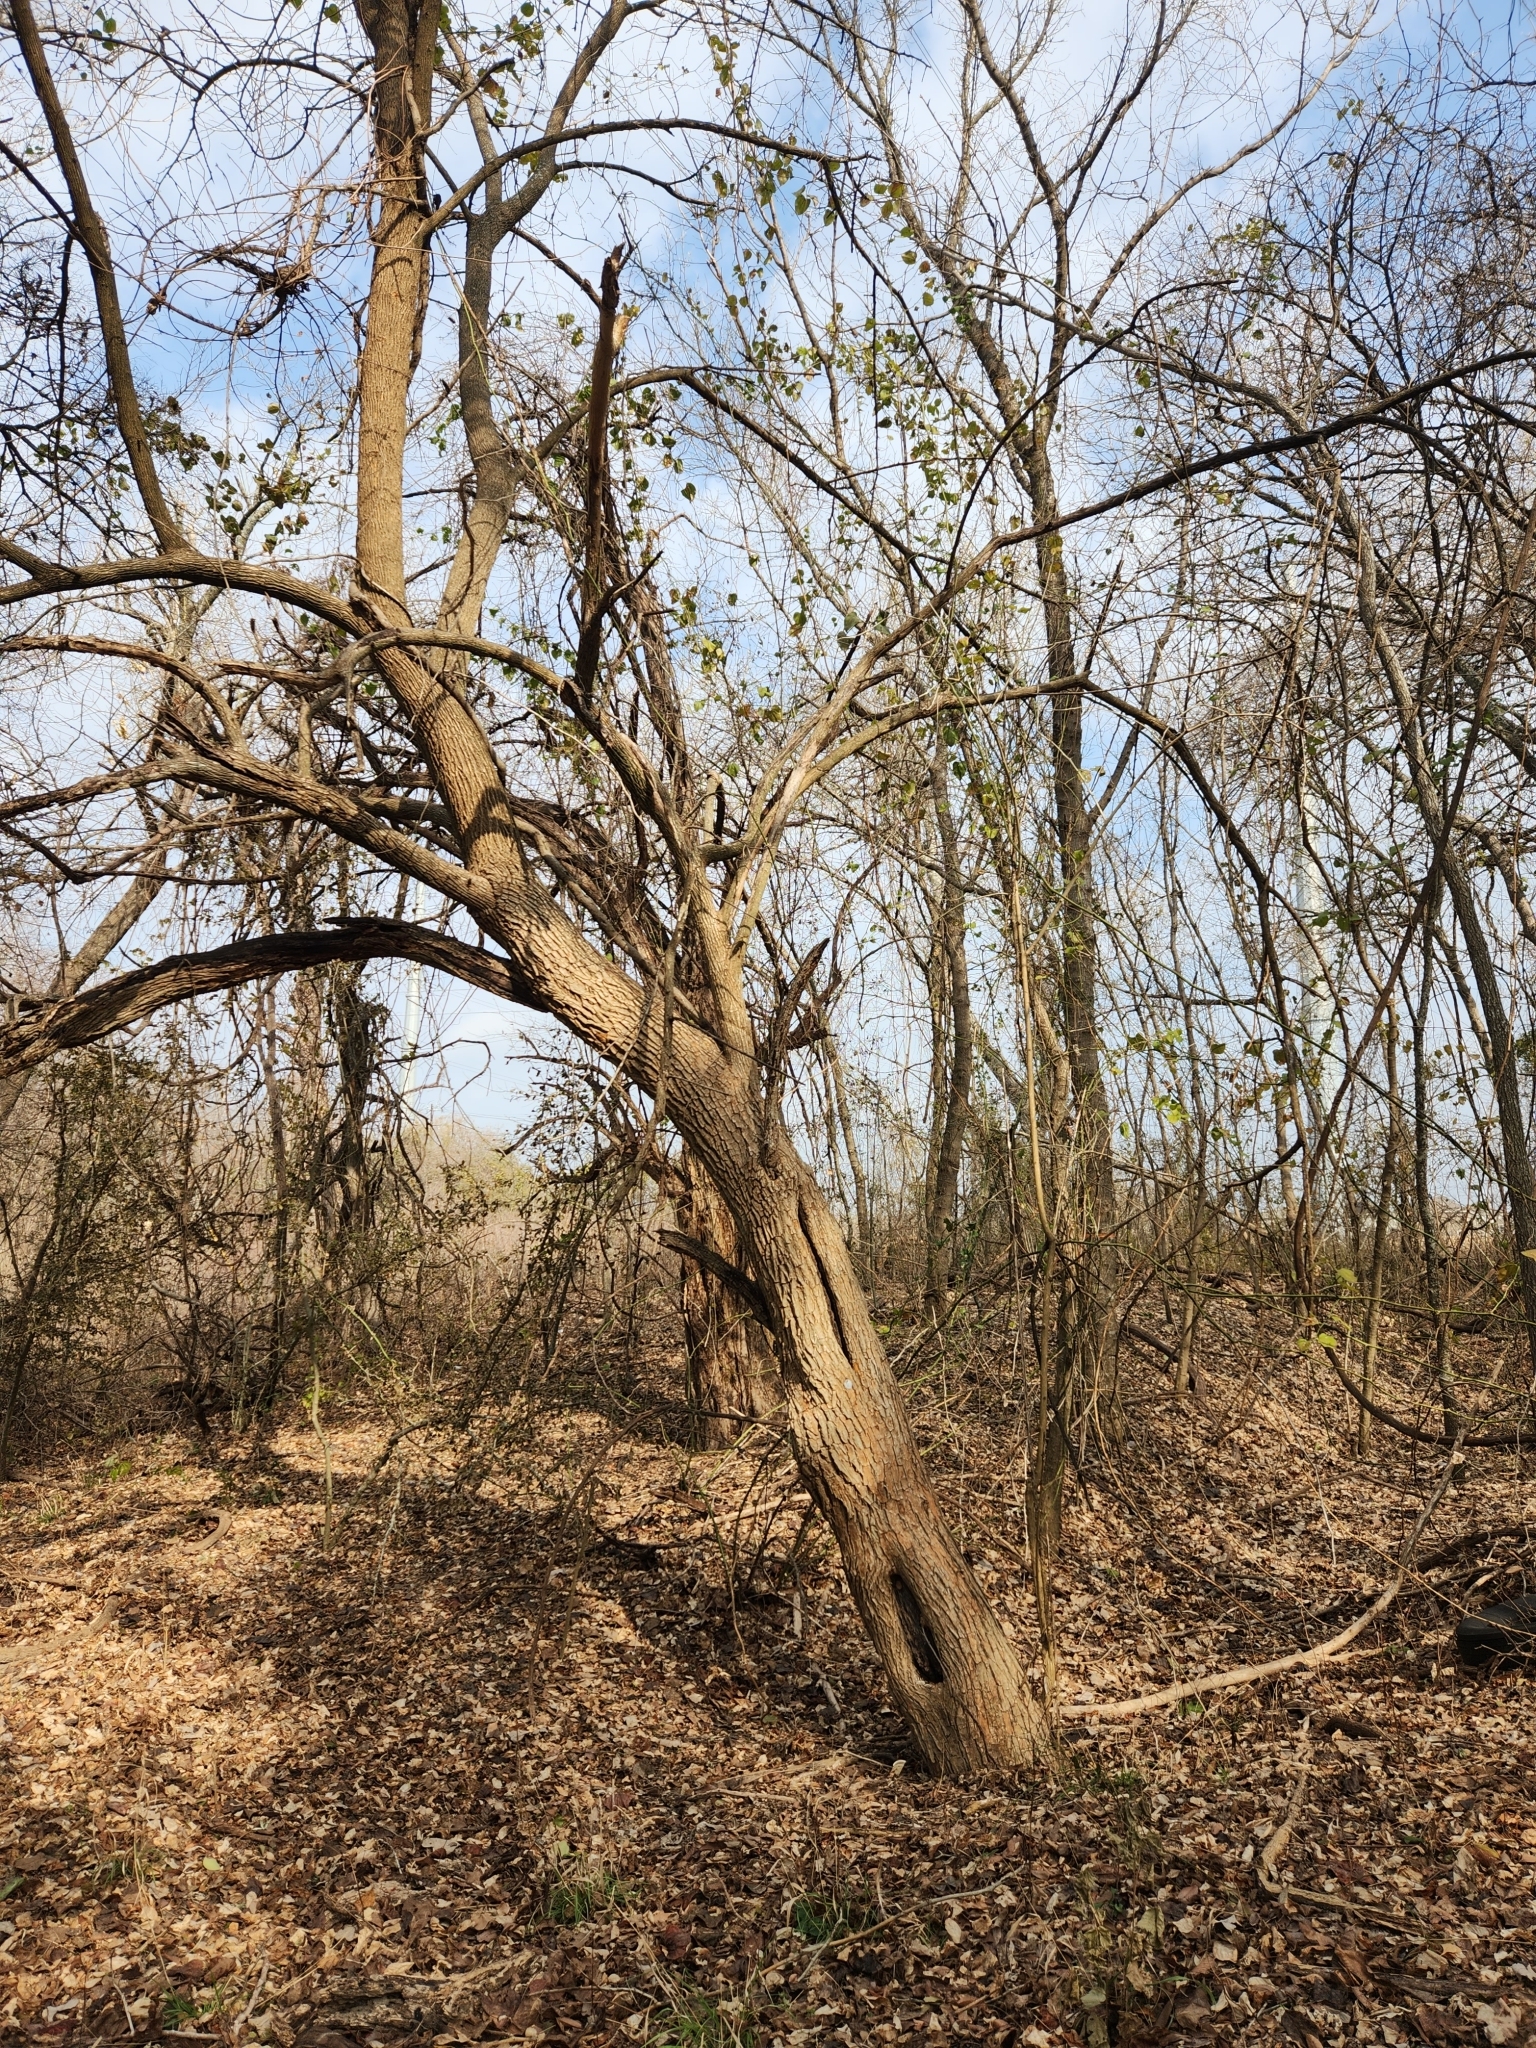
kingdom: Plantae
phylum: Tracheophyta
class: Magnoliopsida
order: Rosales
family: Moraceae
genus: Maclura
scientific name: Maclura pomifera
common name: Osage-orange
